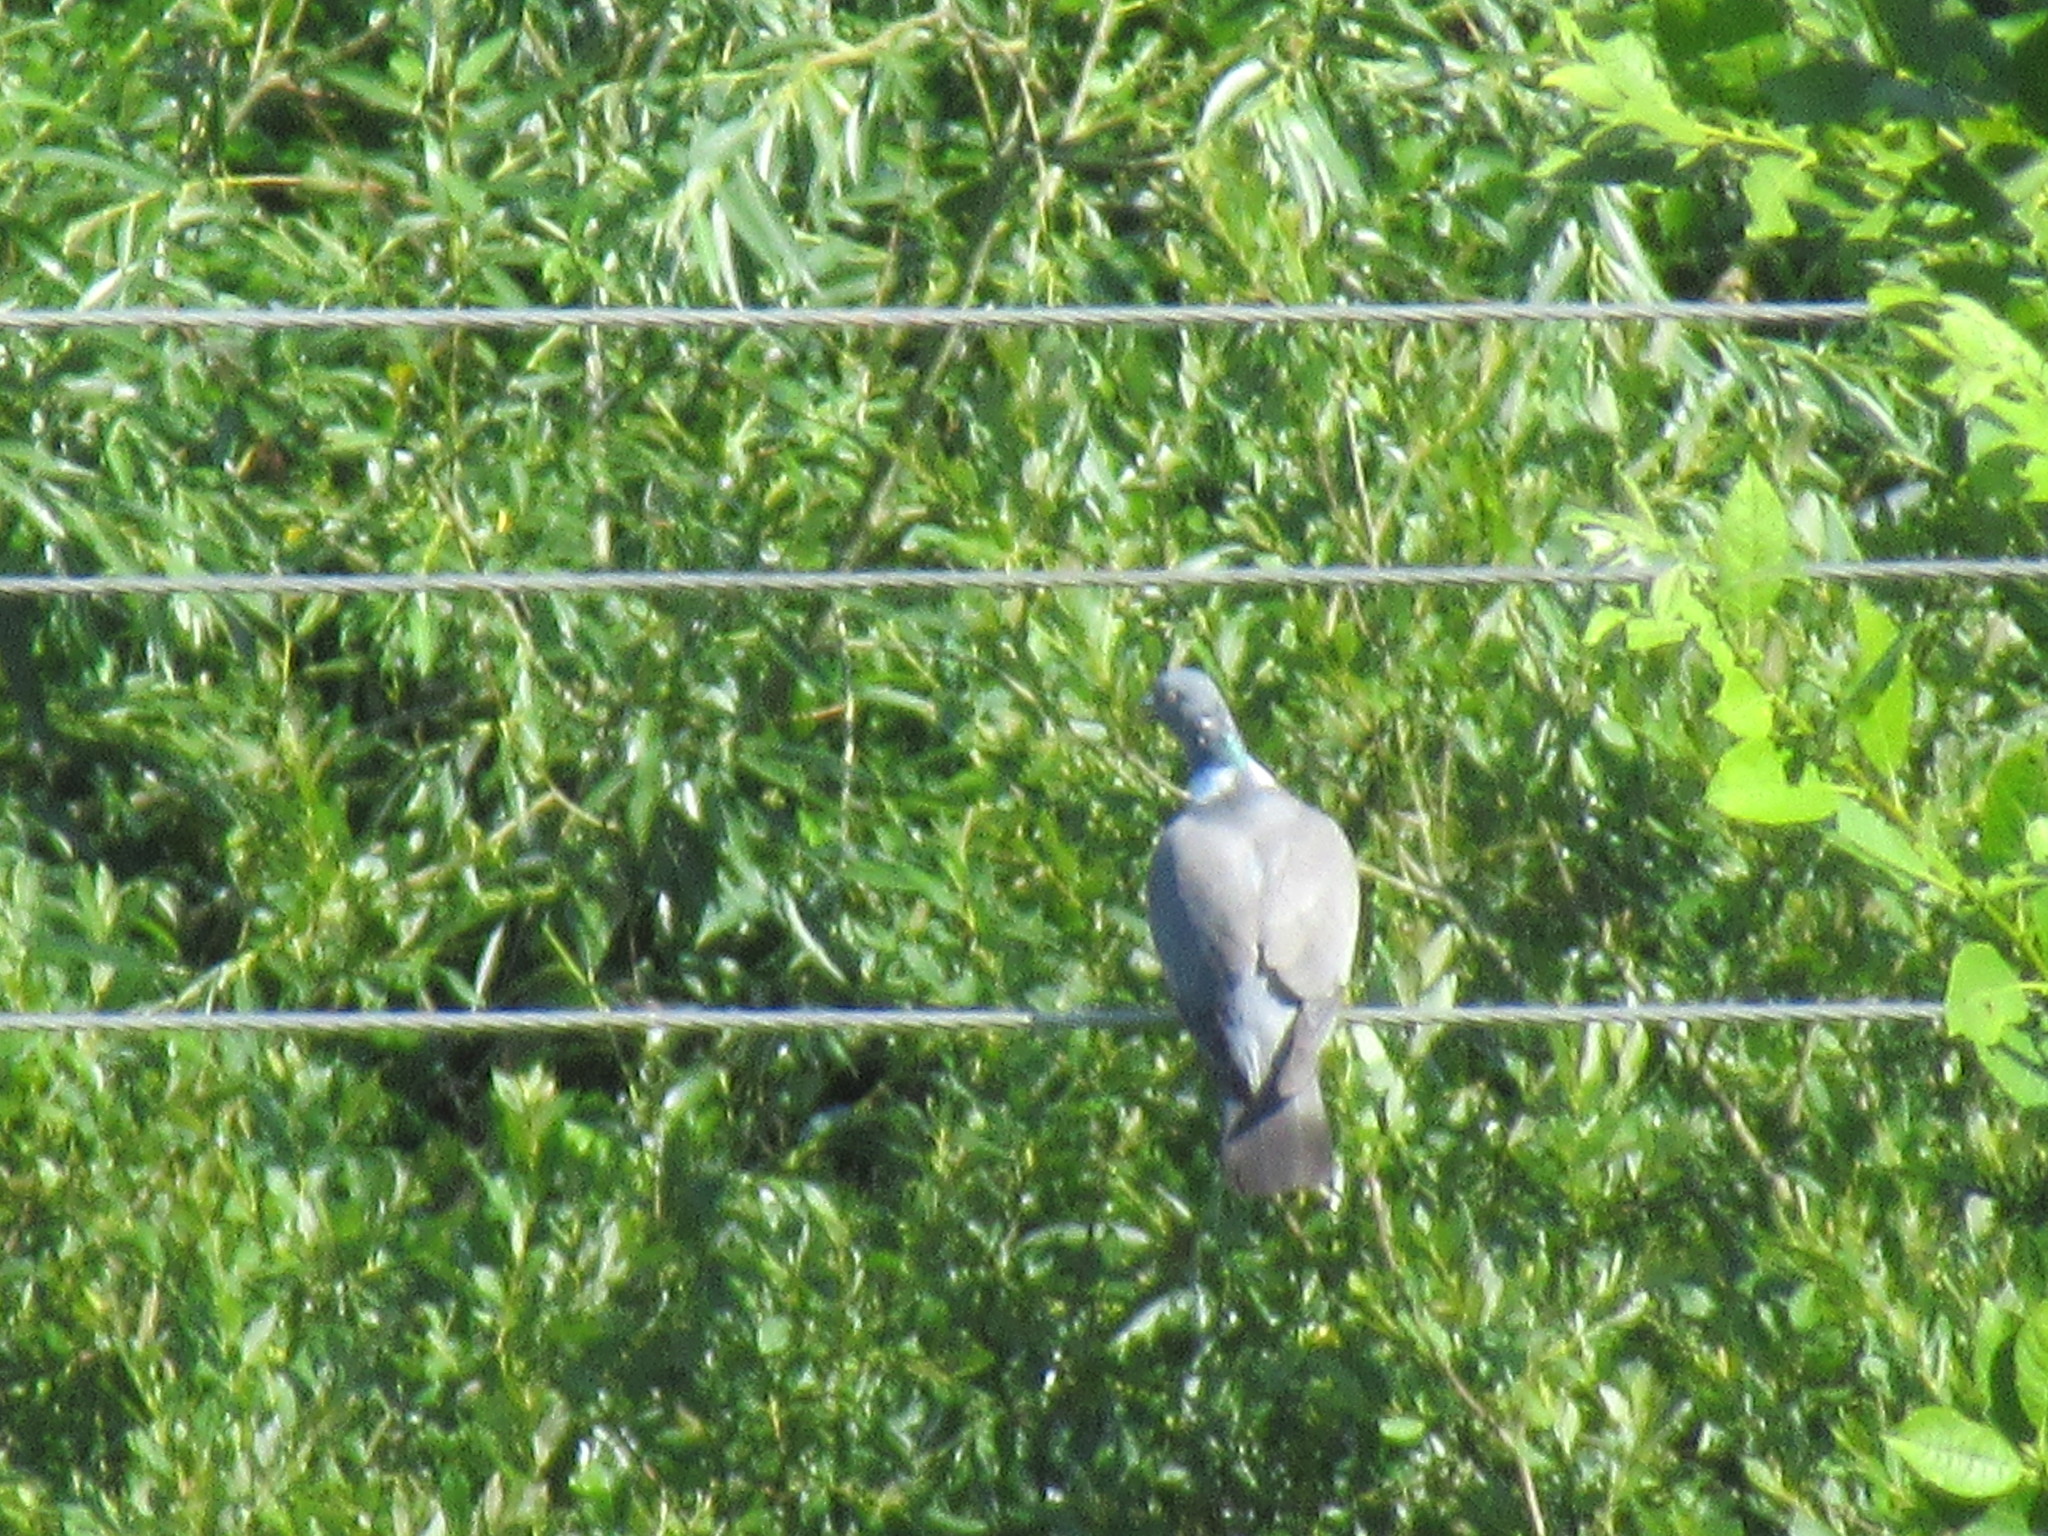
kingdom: Animalia
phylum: Chordata
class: Aves
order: Columbiformes
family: Columbidae
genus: Columba
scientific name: Columba palumbus
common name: Common wood pigeon
